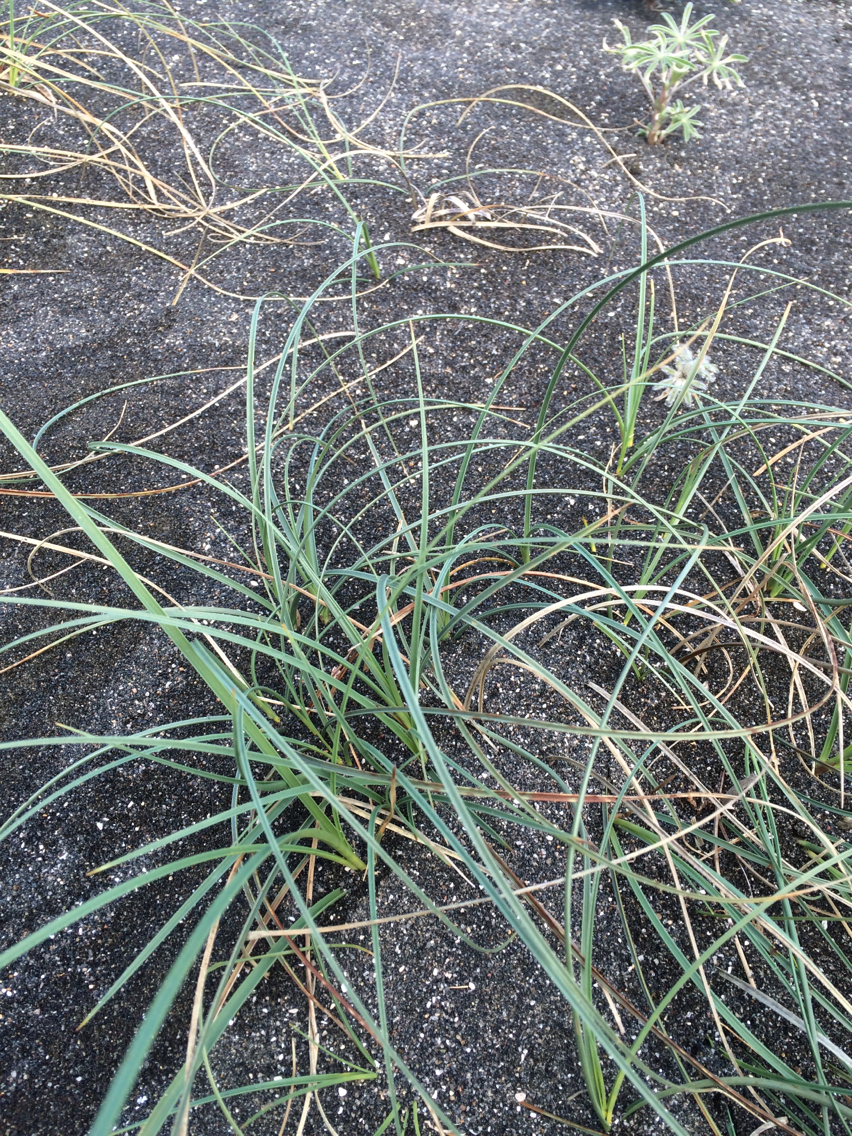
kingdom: Plantae
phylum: Tracheophyta
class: Liliopsida
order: Poales
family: Cyperaceae
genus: Carex
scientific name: Carex pumila
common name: Dwarf sedge
